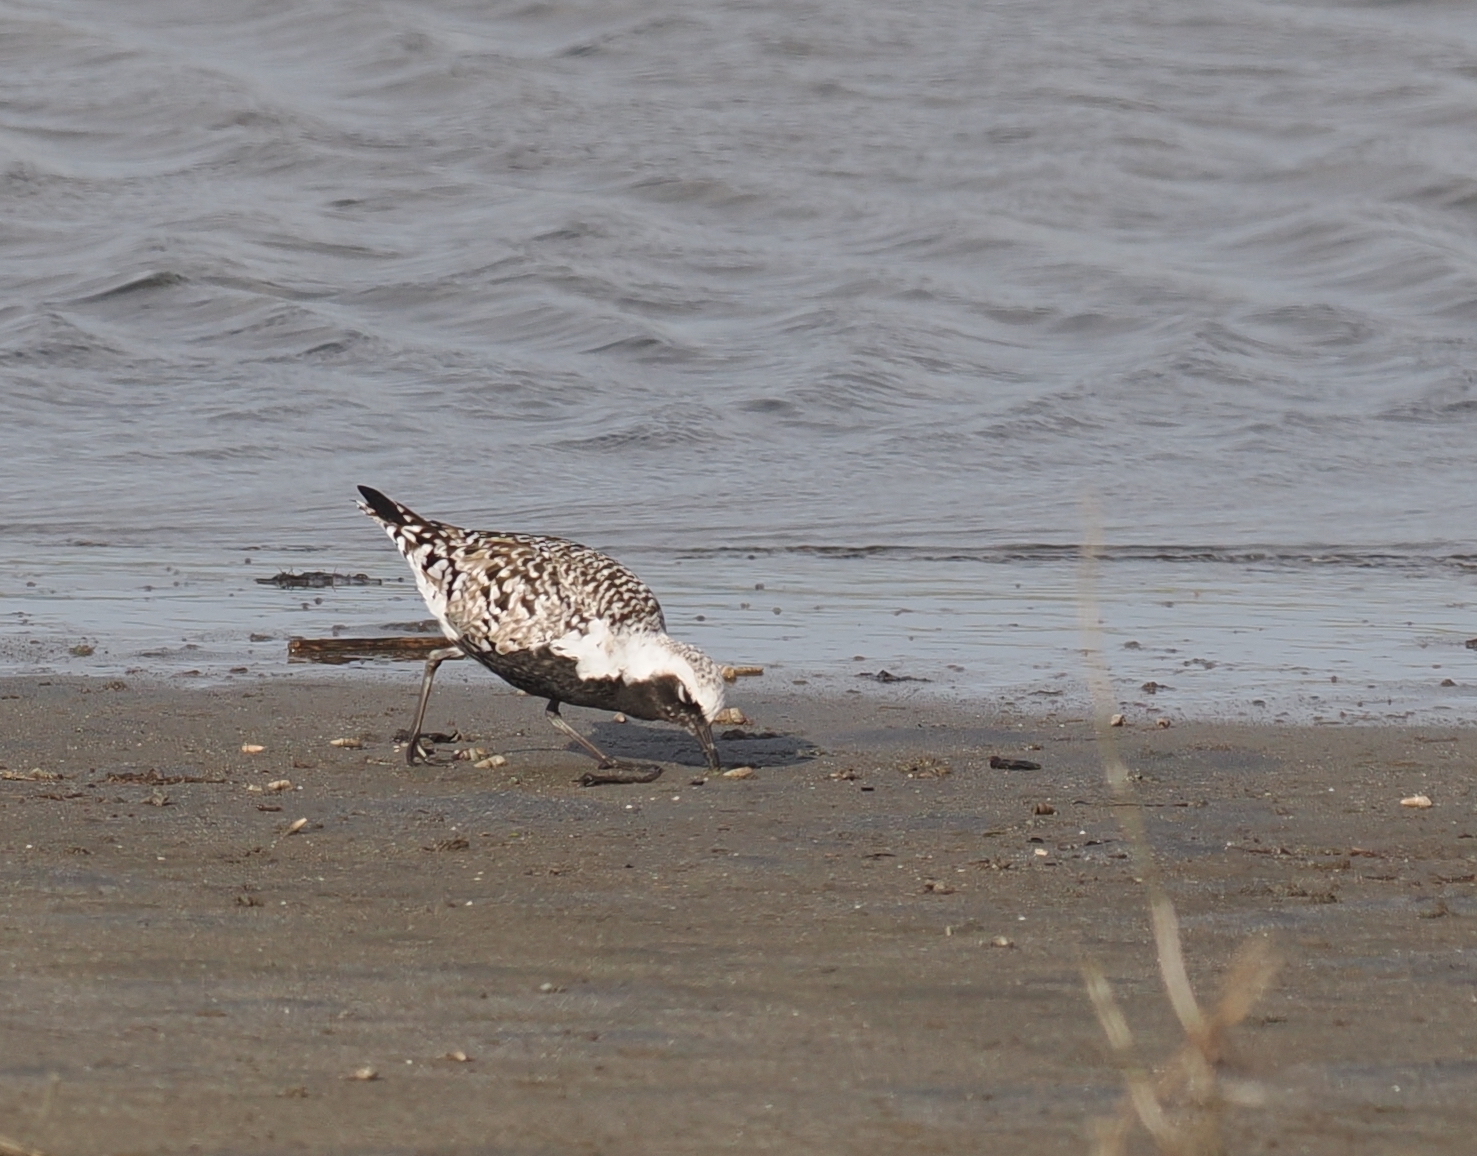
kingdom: Animalia
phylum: Chordata
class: Aves
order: Charadriiformes
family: Charadriidae
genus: Pluvialis
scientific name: Pluvialis squatarola
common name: Grey plover
